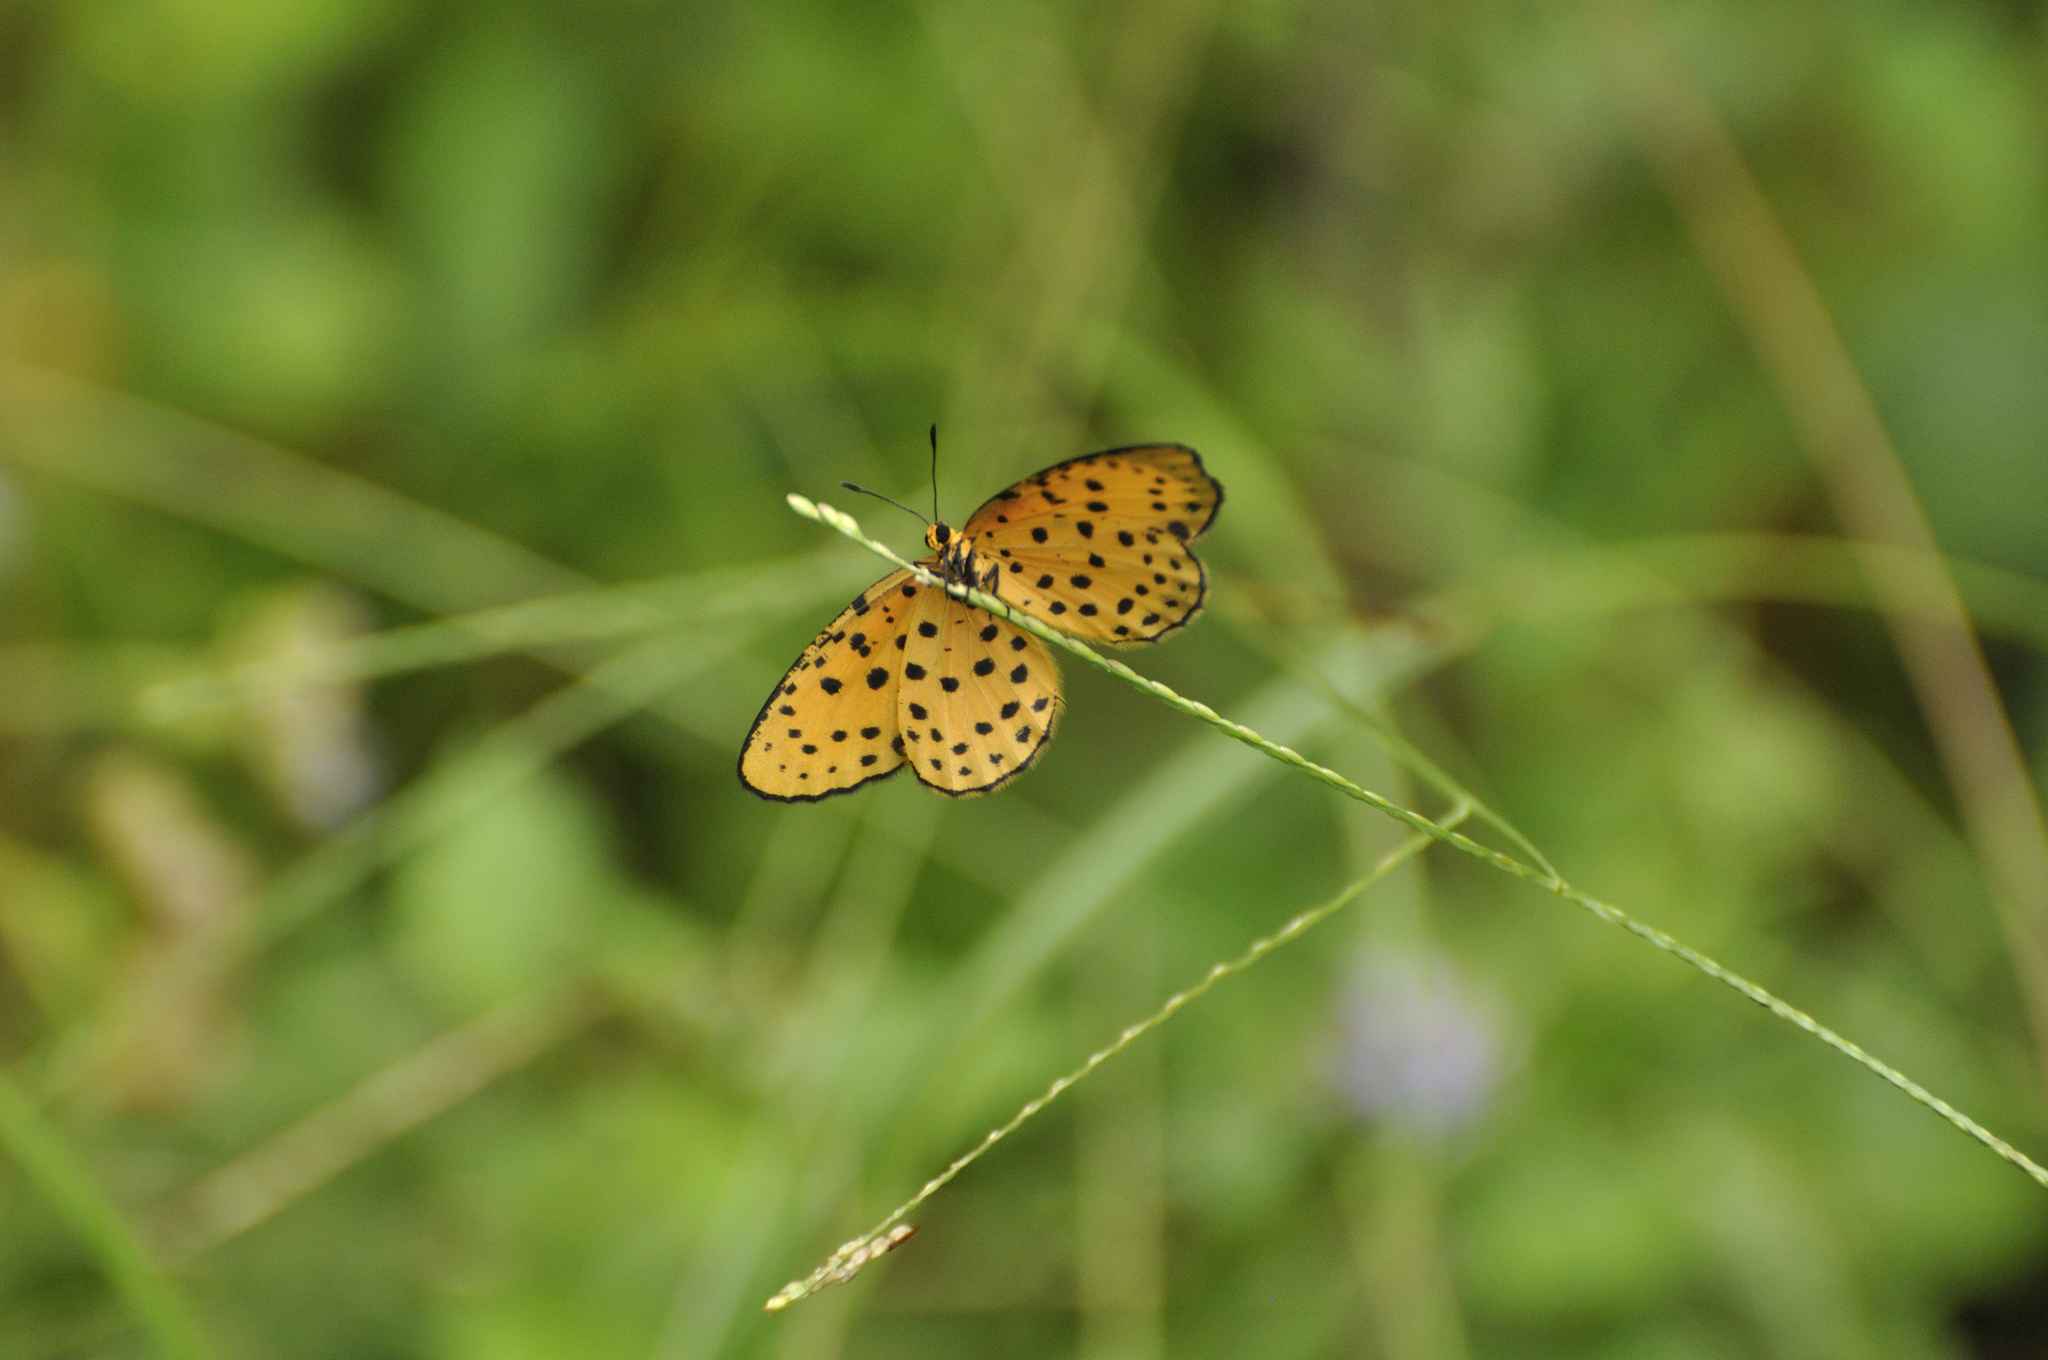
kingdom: Animalia
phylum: Arthropoda
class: Insecta
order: Lepidoptera
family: Lycaenidae
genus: Pentila
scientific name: Pentila pauli
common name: Paul's pentila
